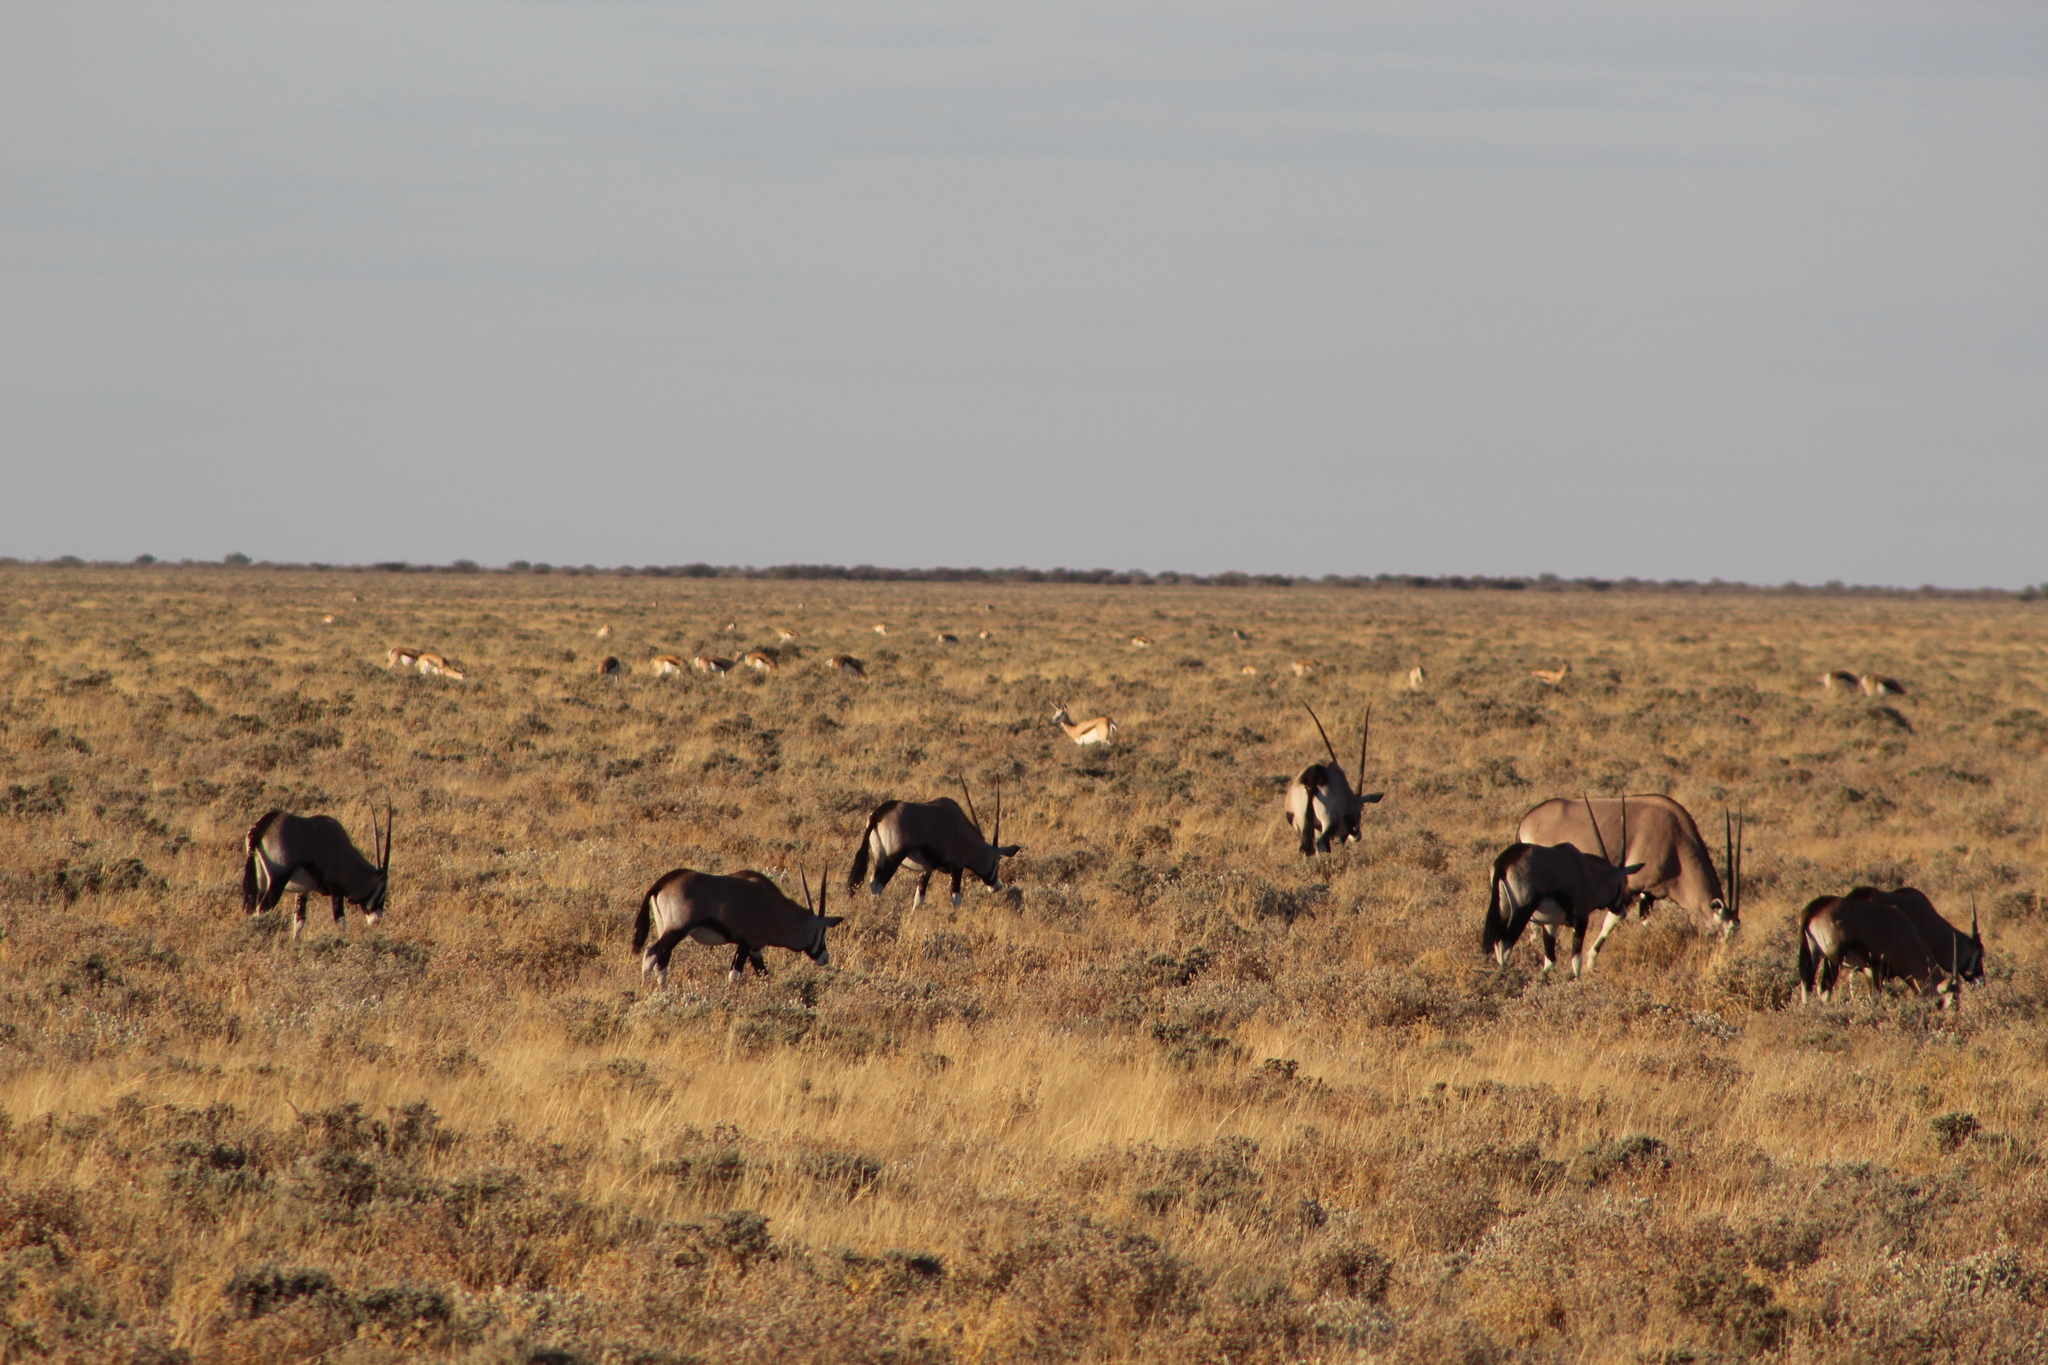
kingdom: Animalia
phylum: Chordata
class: Mammalia
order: Artiodactyla
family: Bovidae
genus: Oryx
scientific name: Oryx gazella
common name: Gemsbok
